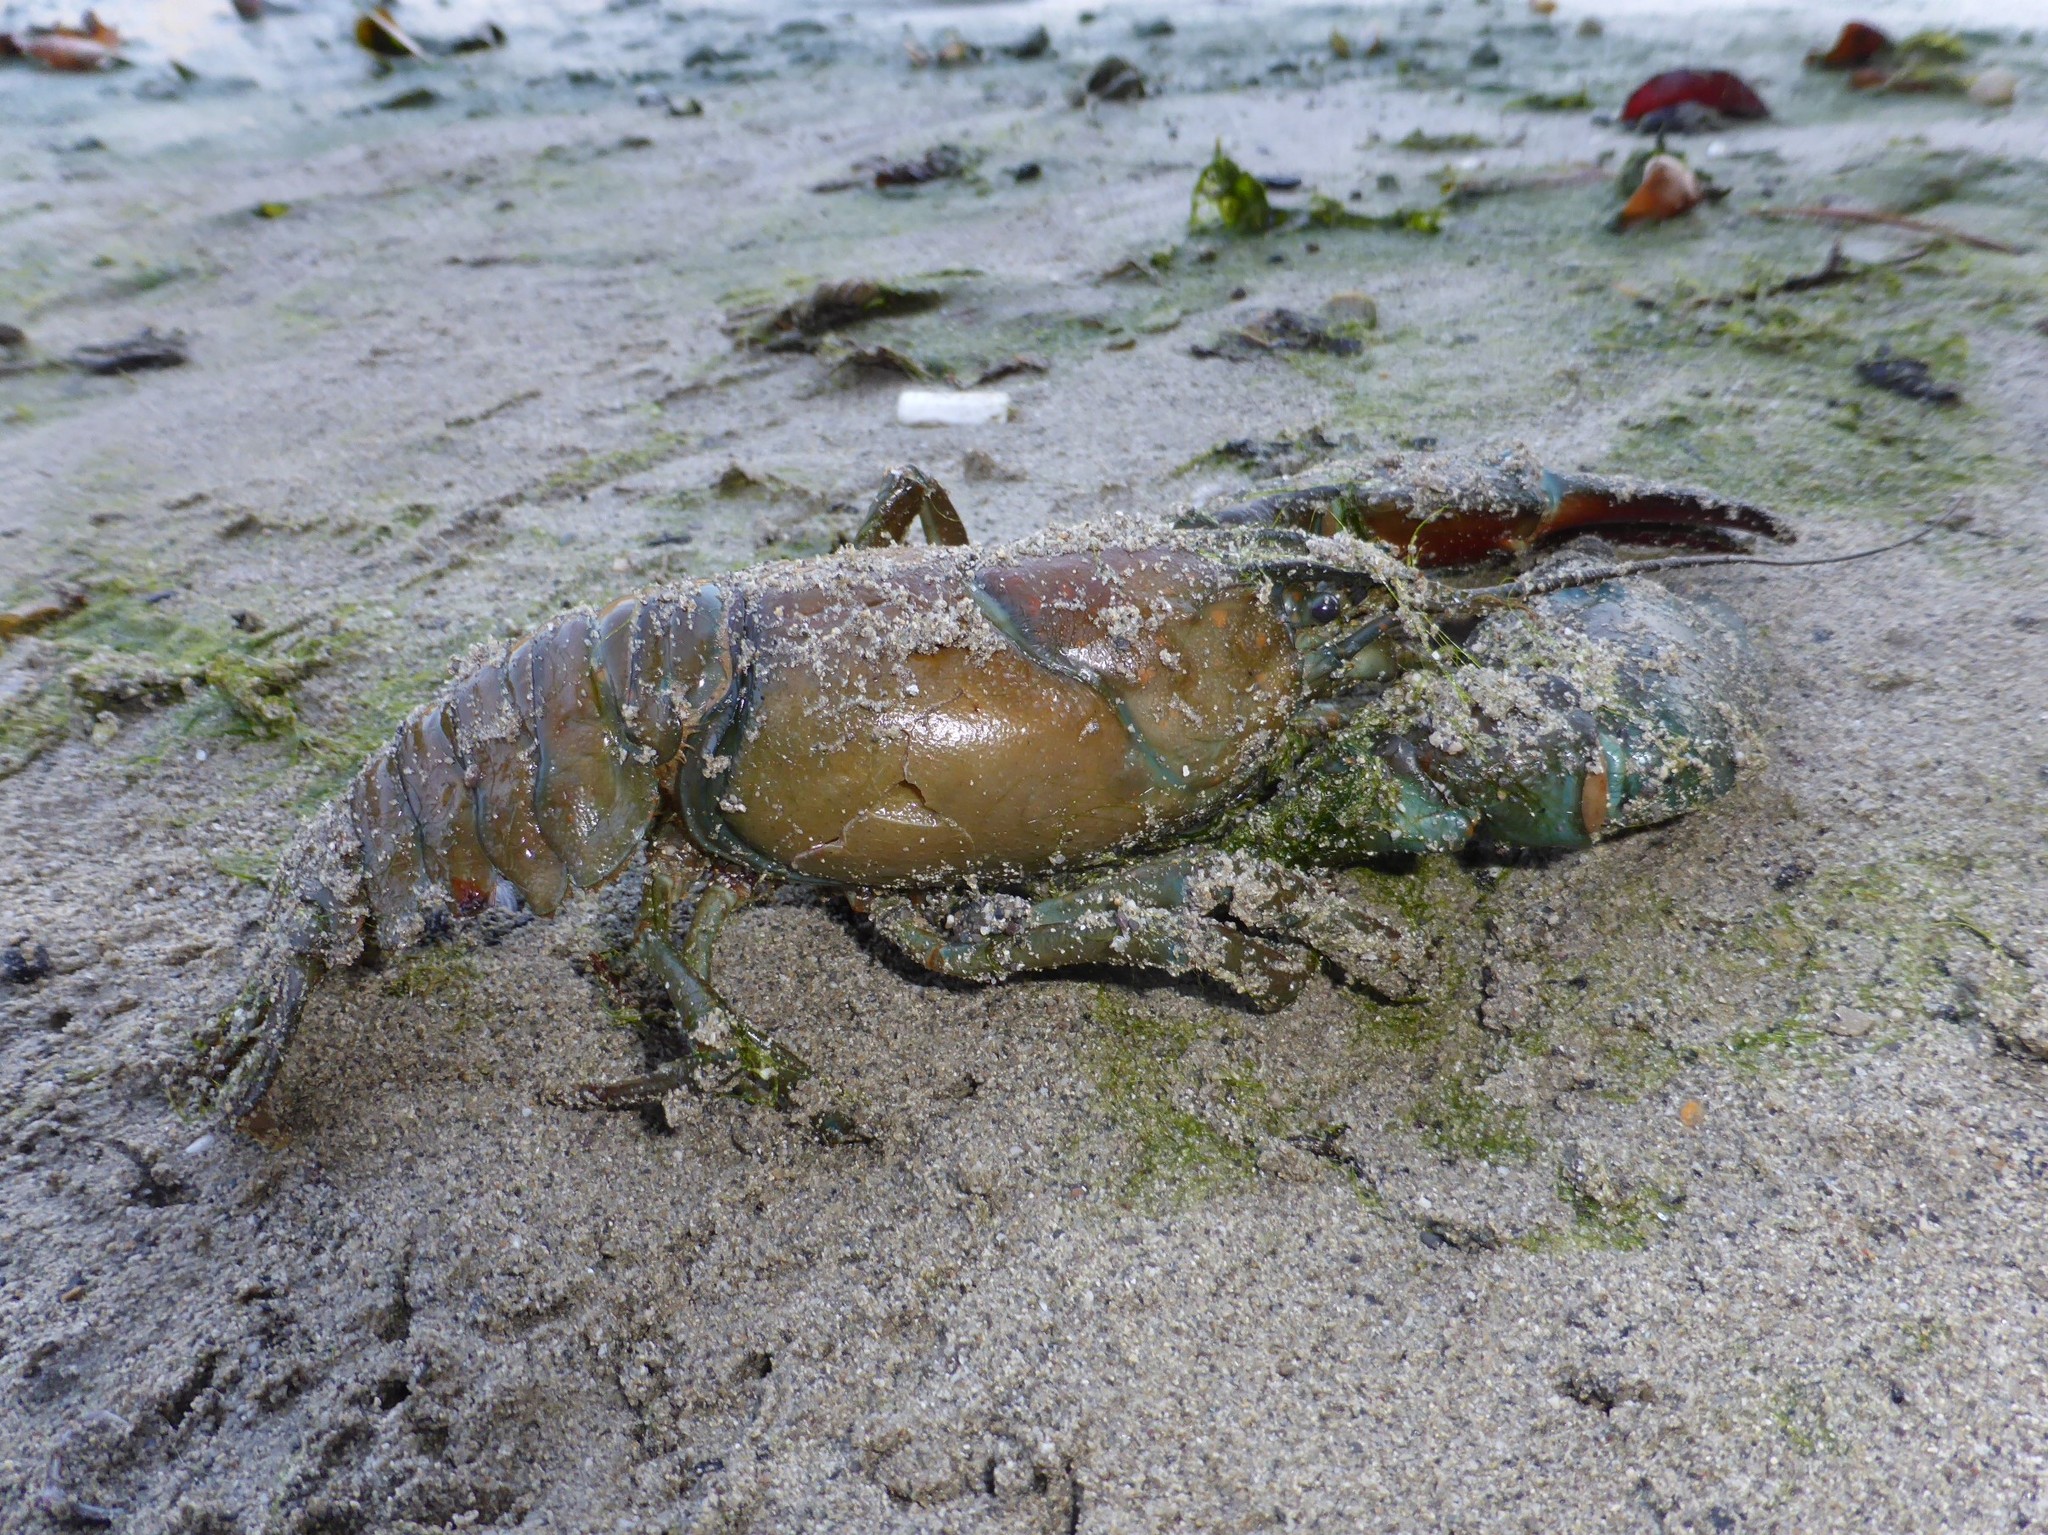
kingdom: Animalia
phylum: Arthropoda
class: Malacostraca
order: Decapoda
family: Astacidae
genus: Pacifastacus
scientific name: Pacifastacus leniusculus
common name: Signal crayfish
